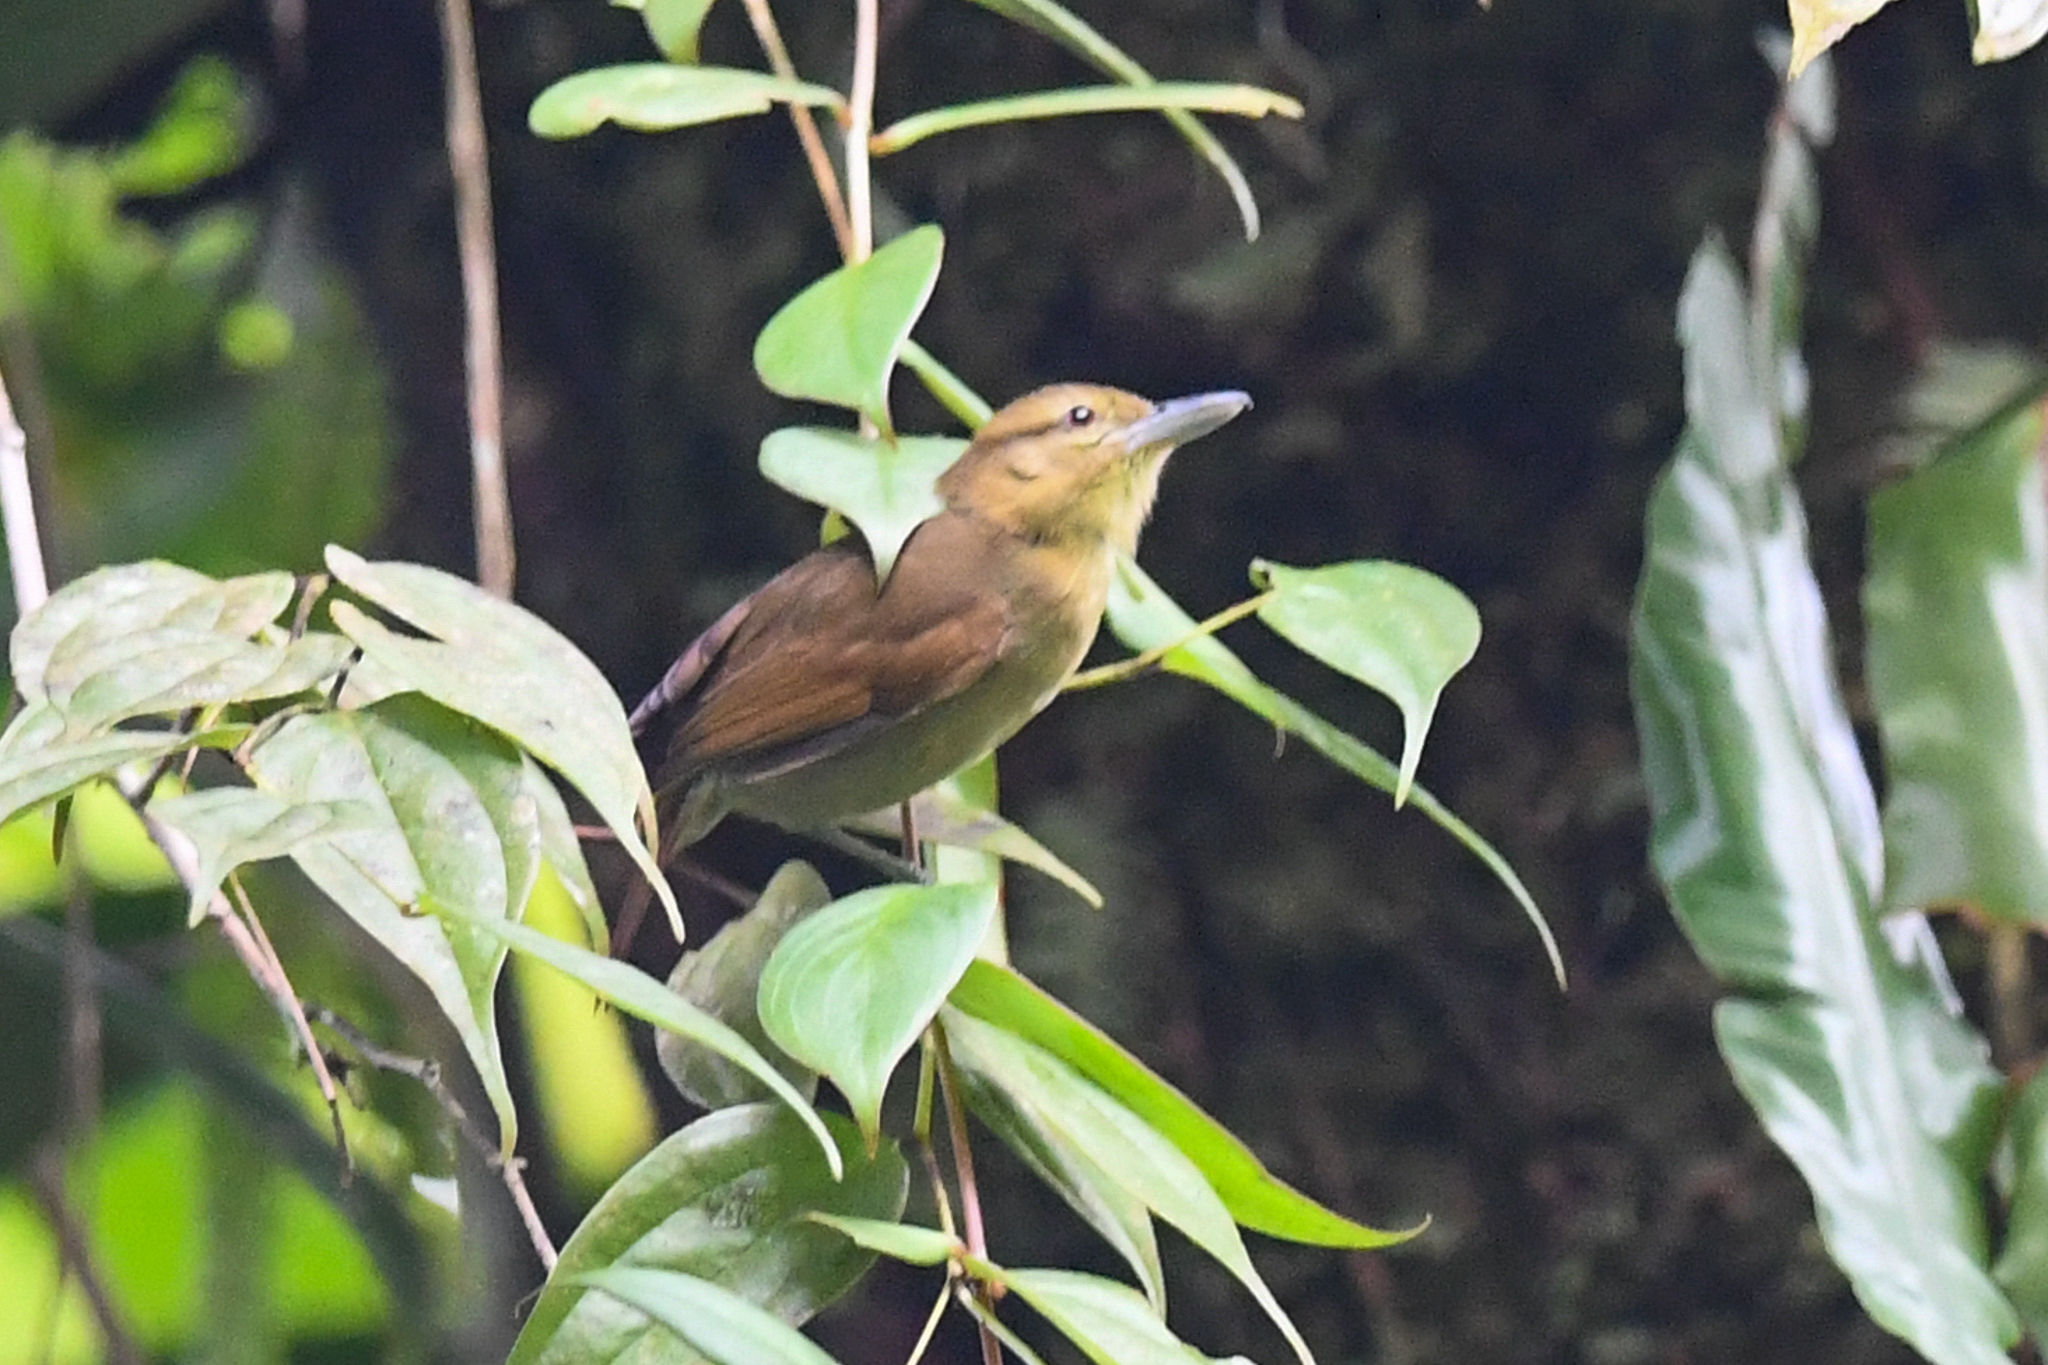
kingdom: Animalia
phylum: Chordata
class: Aves
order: Passeriformes
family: Thamnophilidae
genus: Thamnistes
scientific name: Thamnistes anabatinus
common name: Russet antshrike
